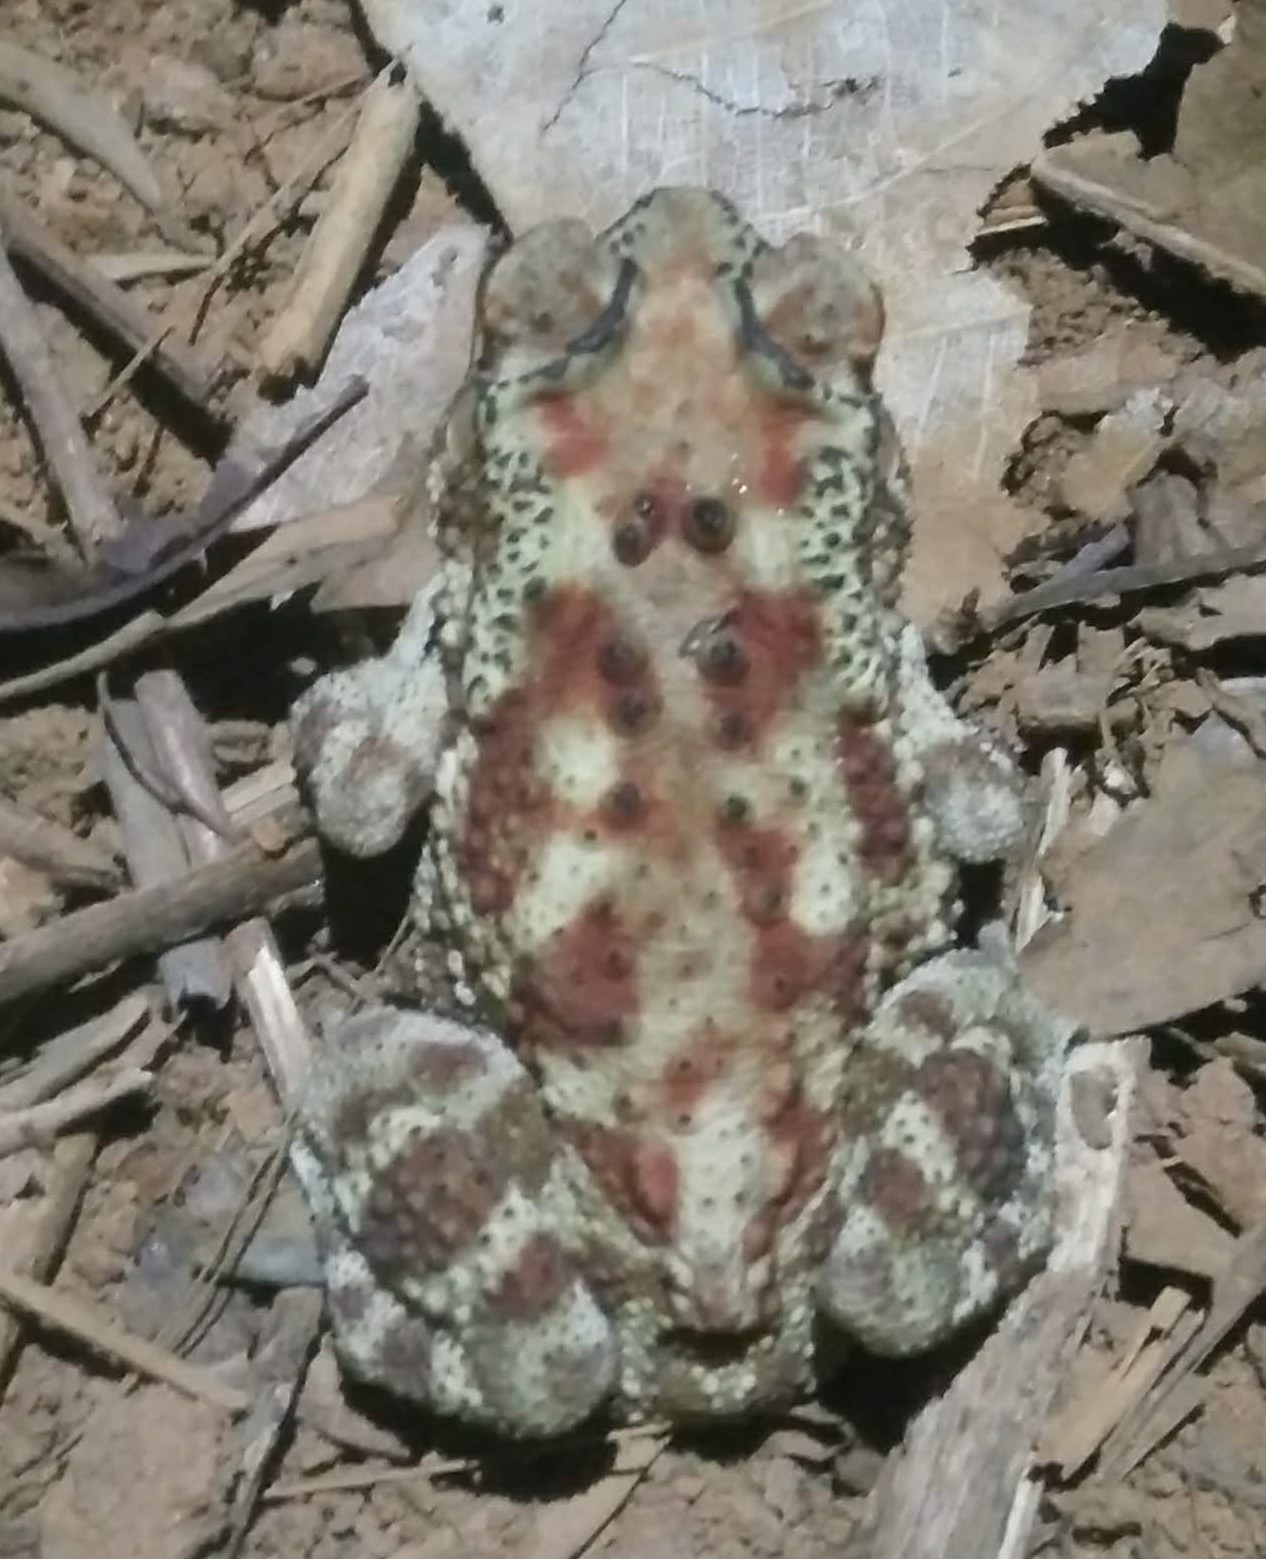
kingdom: Animalia
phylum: Chordata
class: Amphibia
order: Anura
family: Bufonidae
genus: Duttaphrynus
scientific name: Duttaphrynus melanostictus
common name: Common sunda toad
